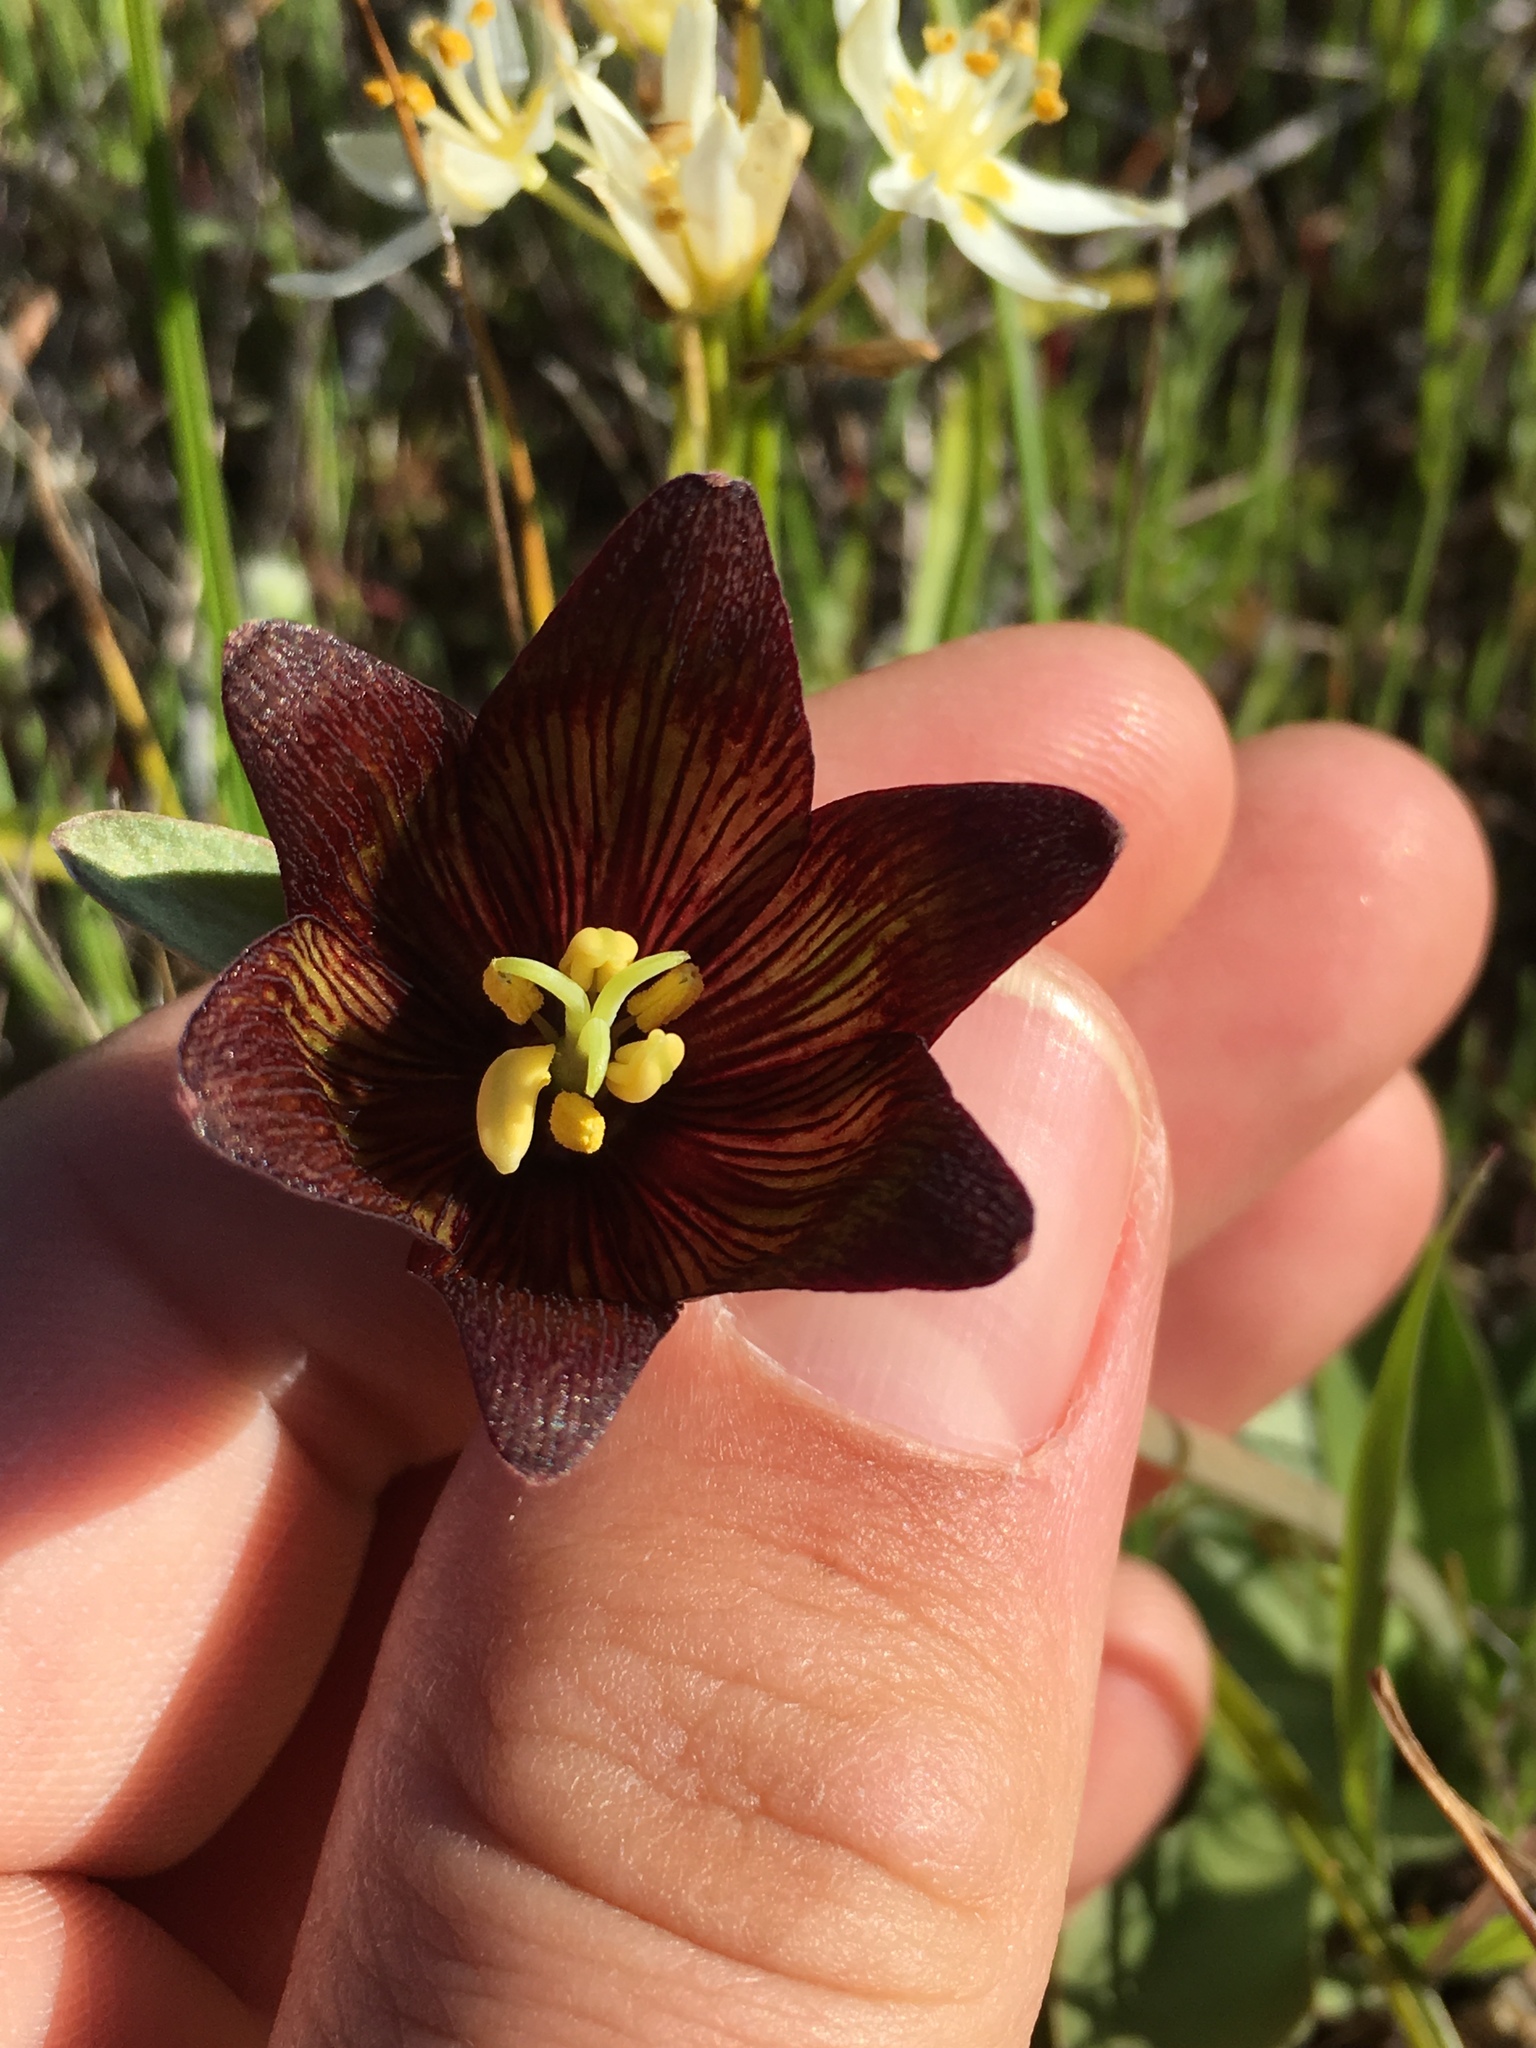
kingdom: Plantae
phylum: Tracheophyta
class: Liliopsida
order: Liliales
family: Liliaceae
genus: Fritillaria
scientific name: Fritillaria biflora
